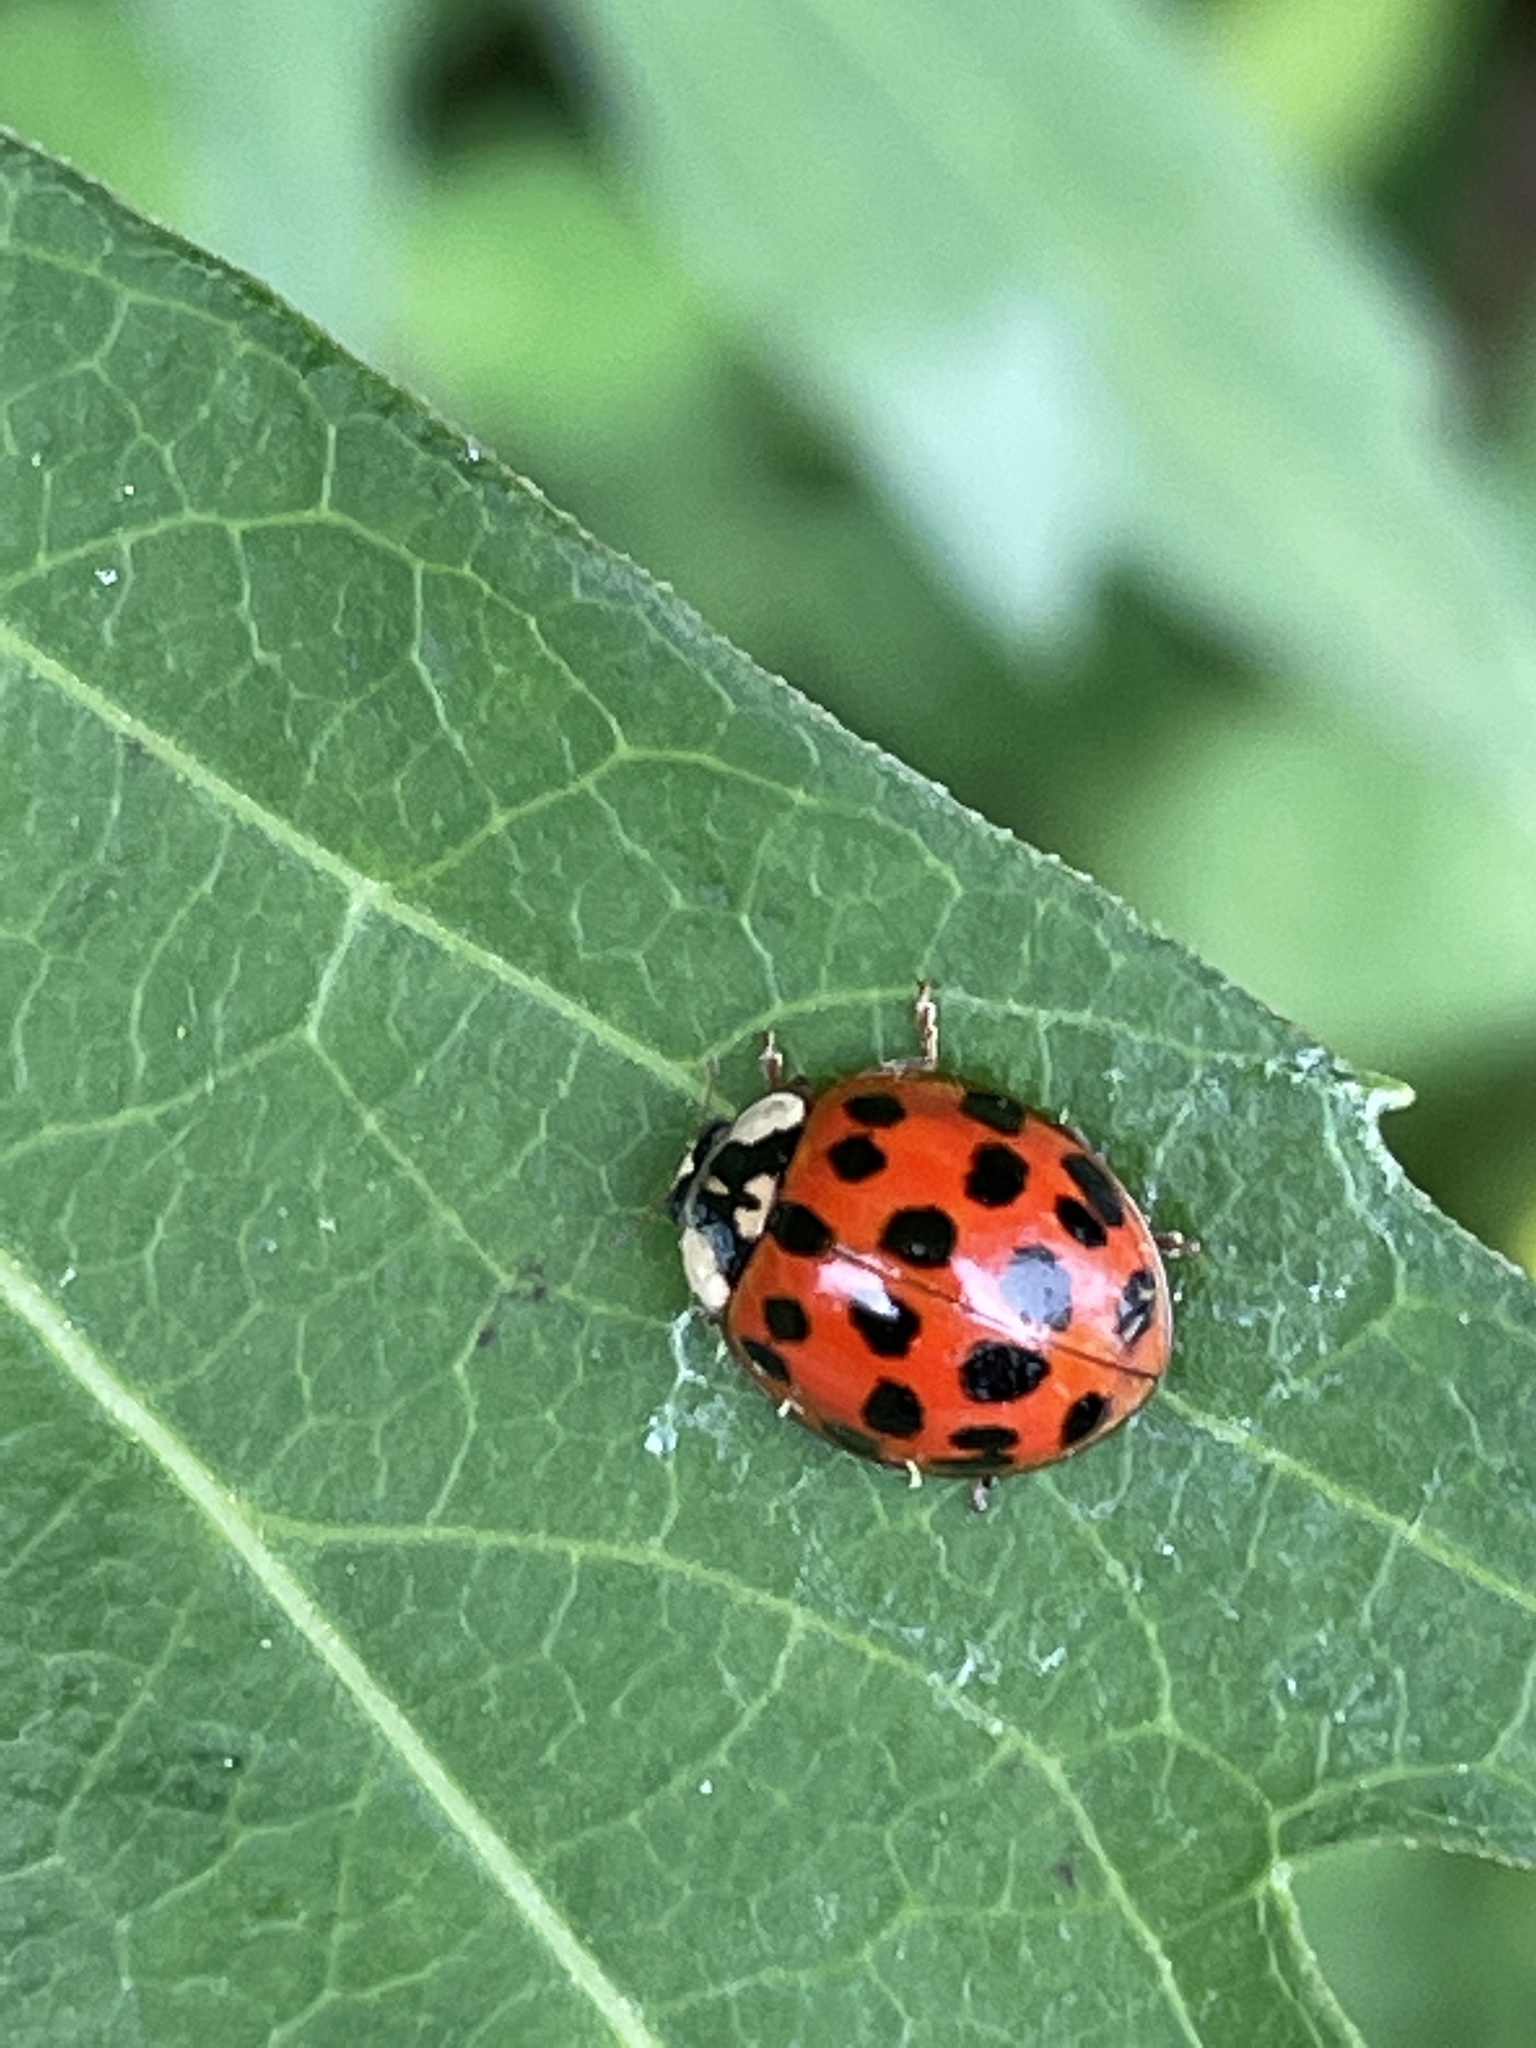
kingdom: Animalia
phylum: Arthropoda
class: Insecta
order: Coleoptera
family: Coccinellidae
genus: Harmonia
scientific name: Harmonia axyridis
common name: Harlequin ladybird
